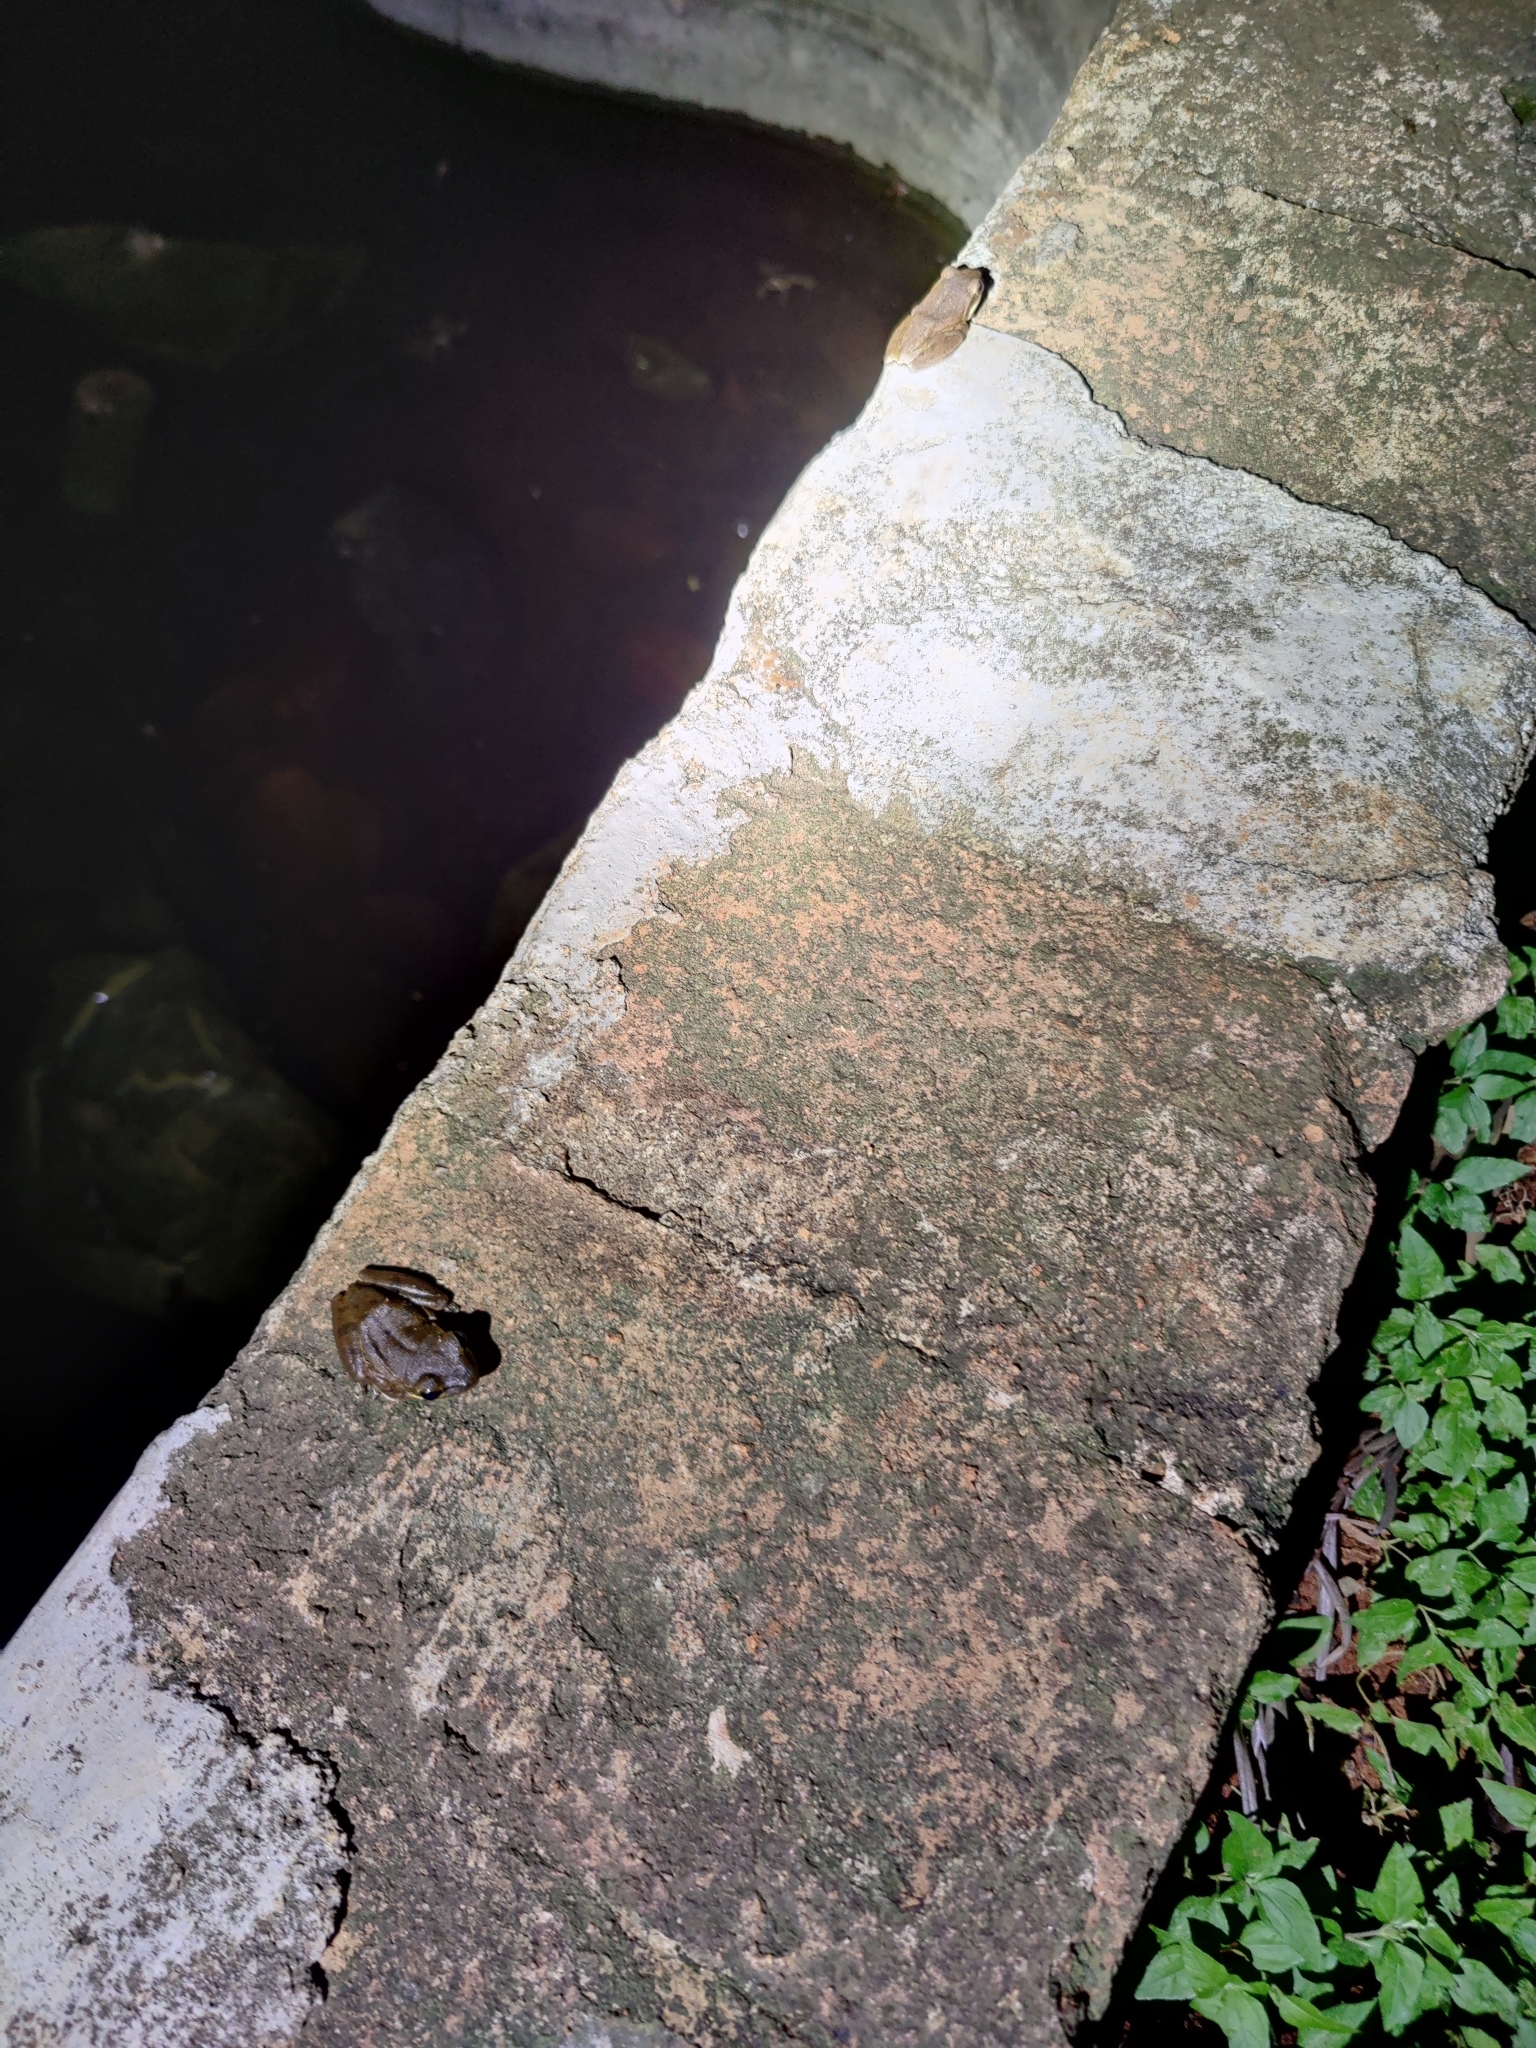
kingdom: Animalia
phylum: Chordata
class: Amphibia
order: Anura
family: Rhacophoridae
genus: Polypedates
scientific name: Polypedates maculatus
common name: Himalayan tree frog
